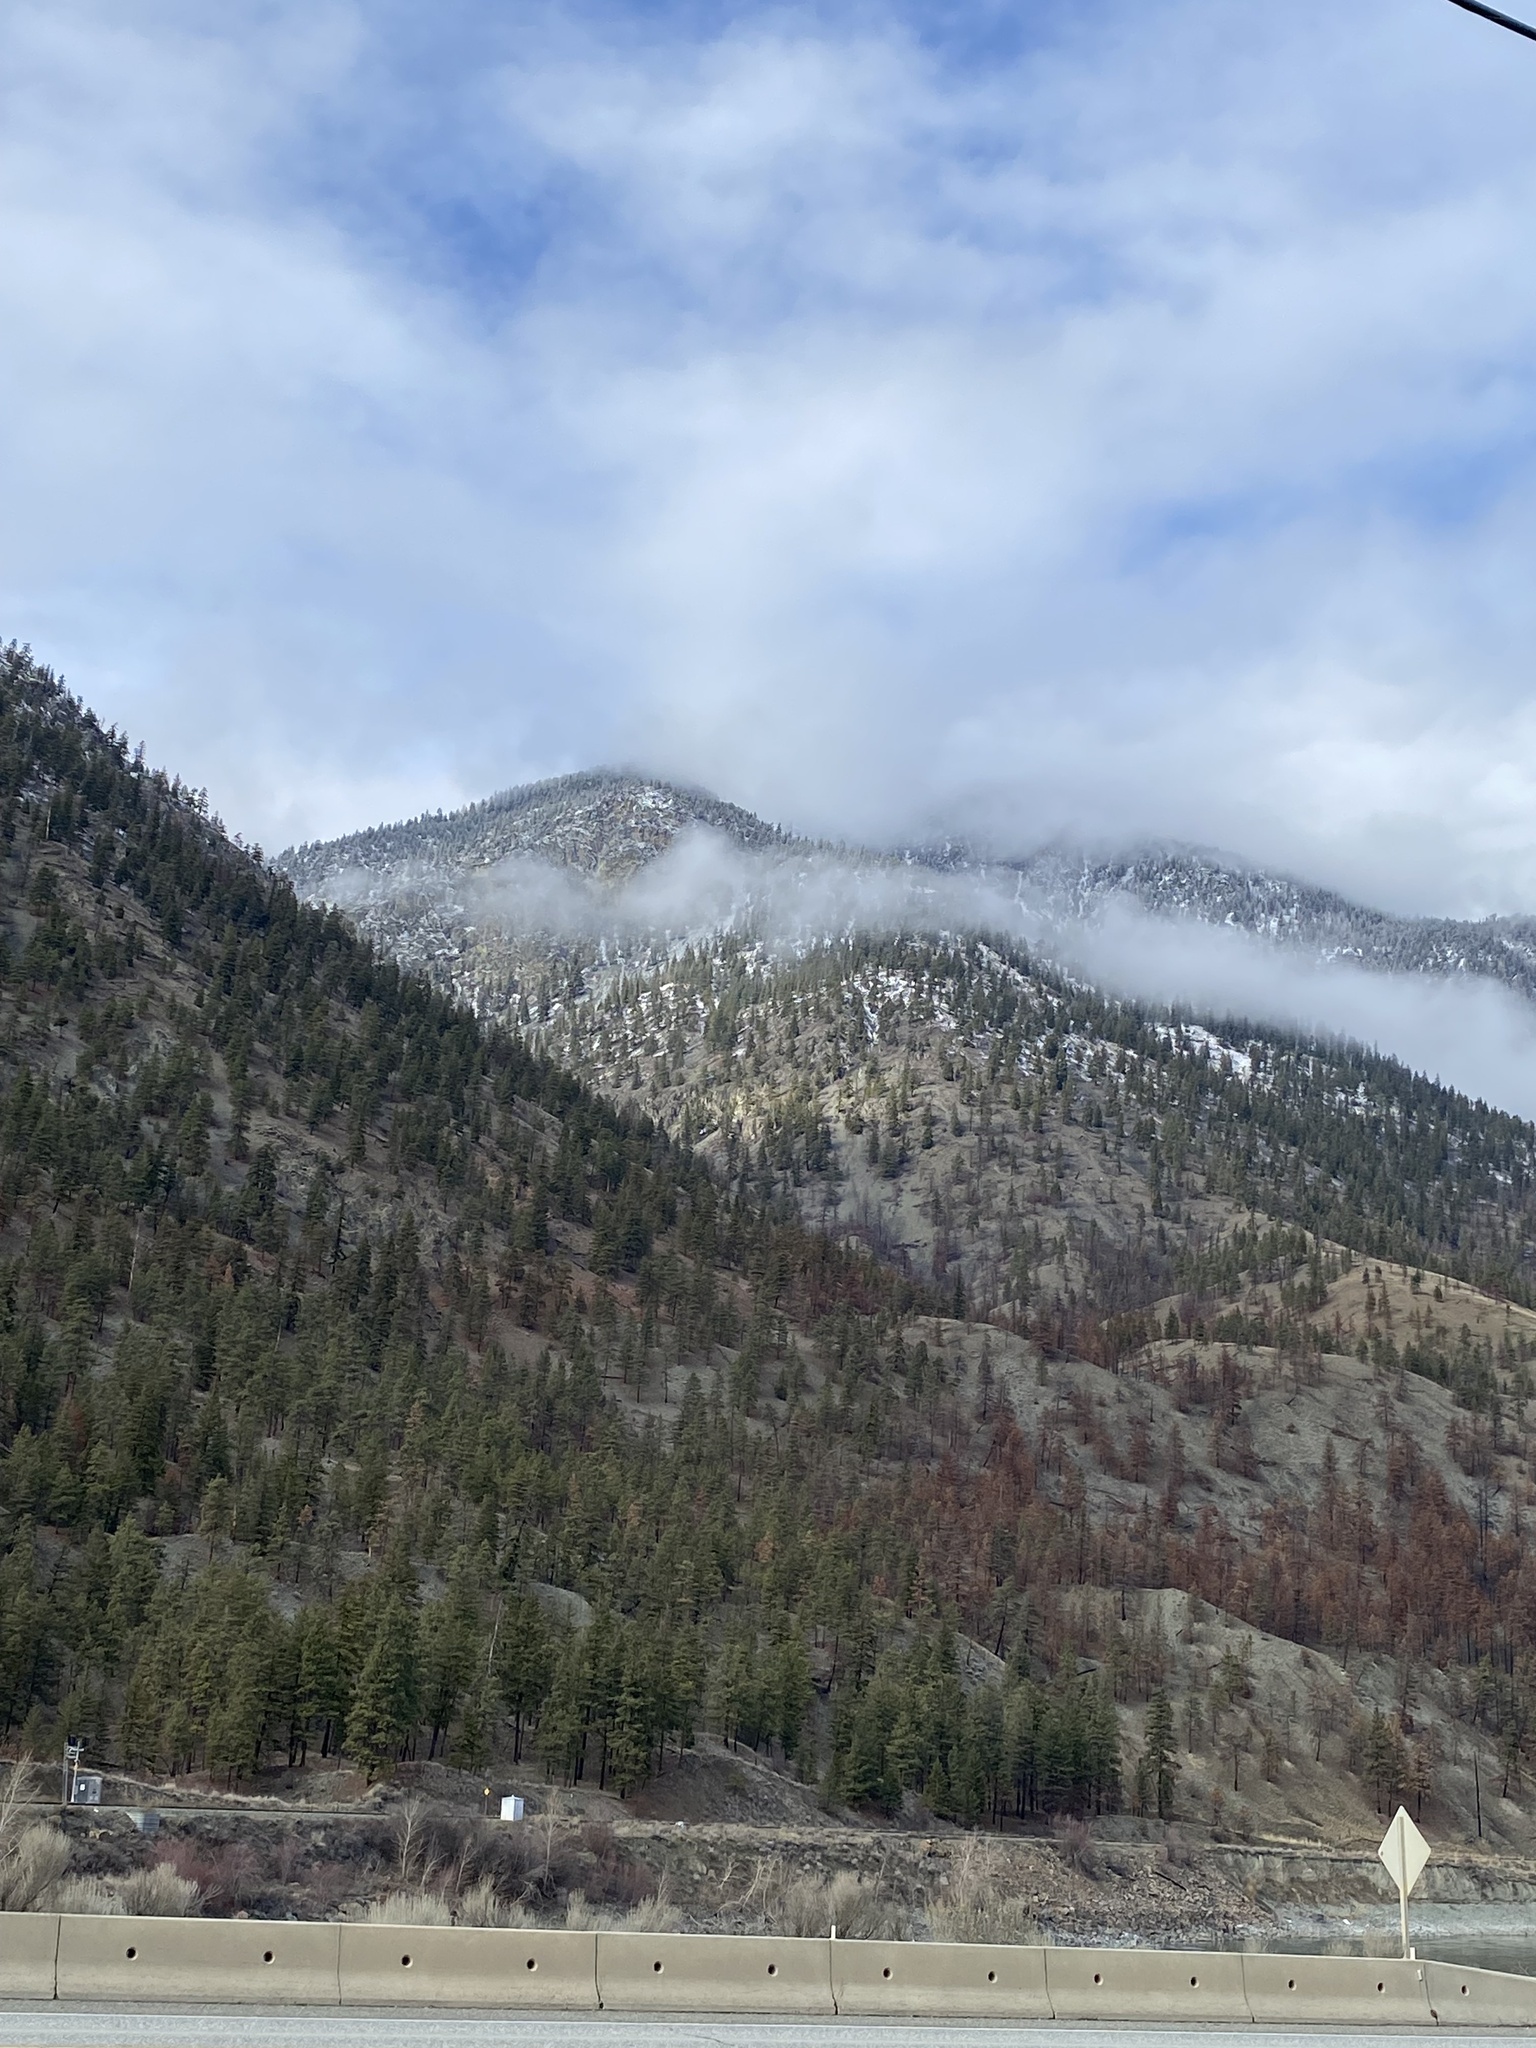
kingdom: Plantae
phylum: Tracheophyta
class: Pinopsida
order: Pinales
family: Pinaceae
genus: Pinus
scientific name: Pinus ponderosa
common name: Western yellow-pine
